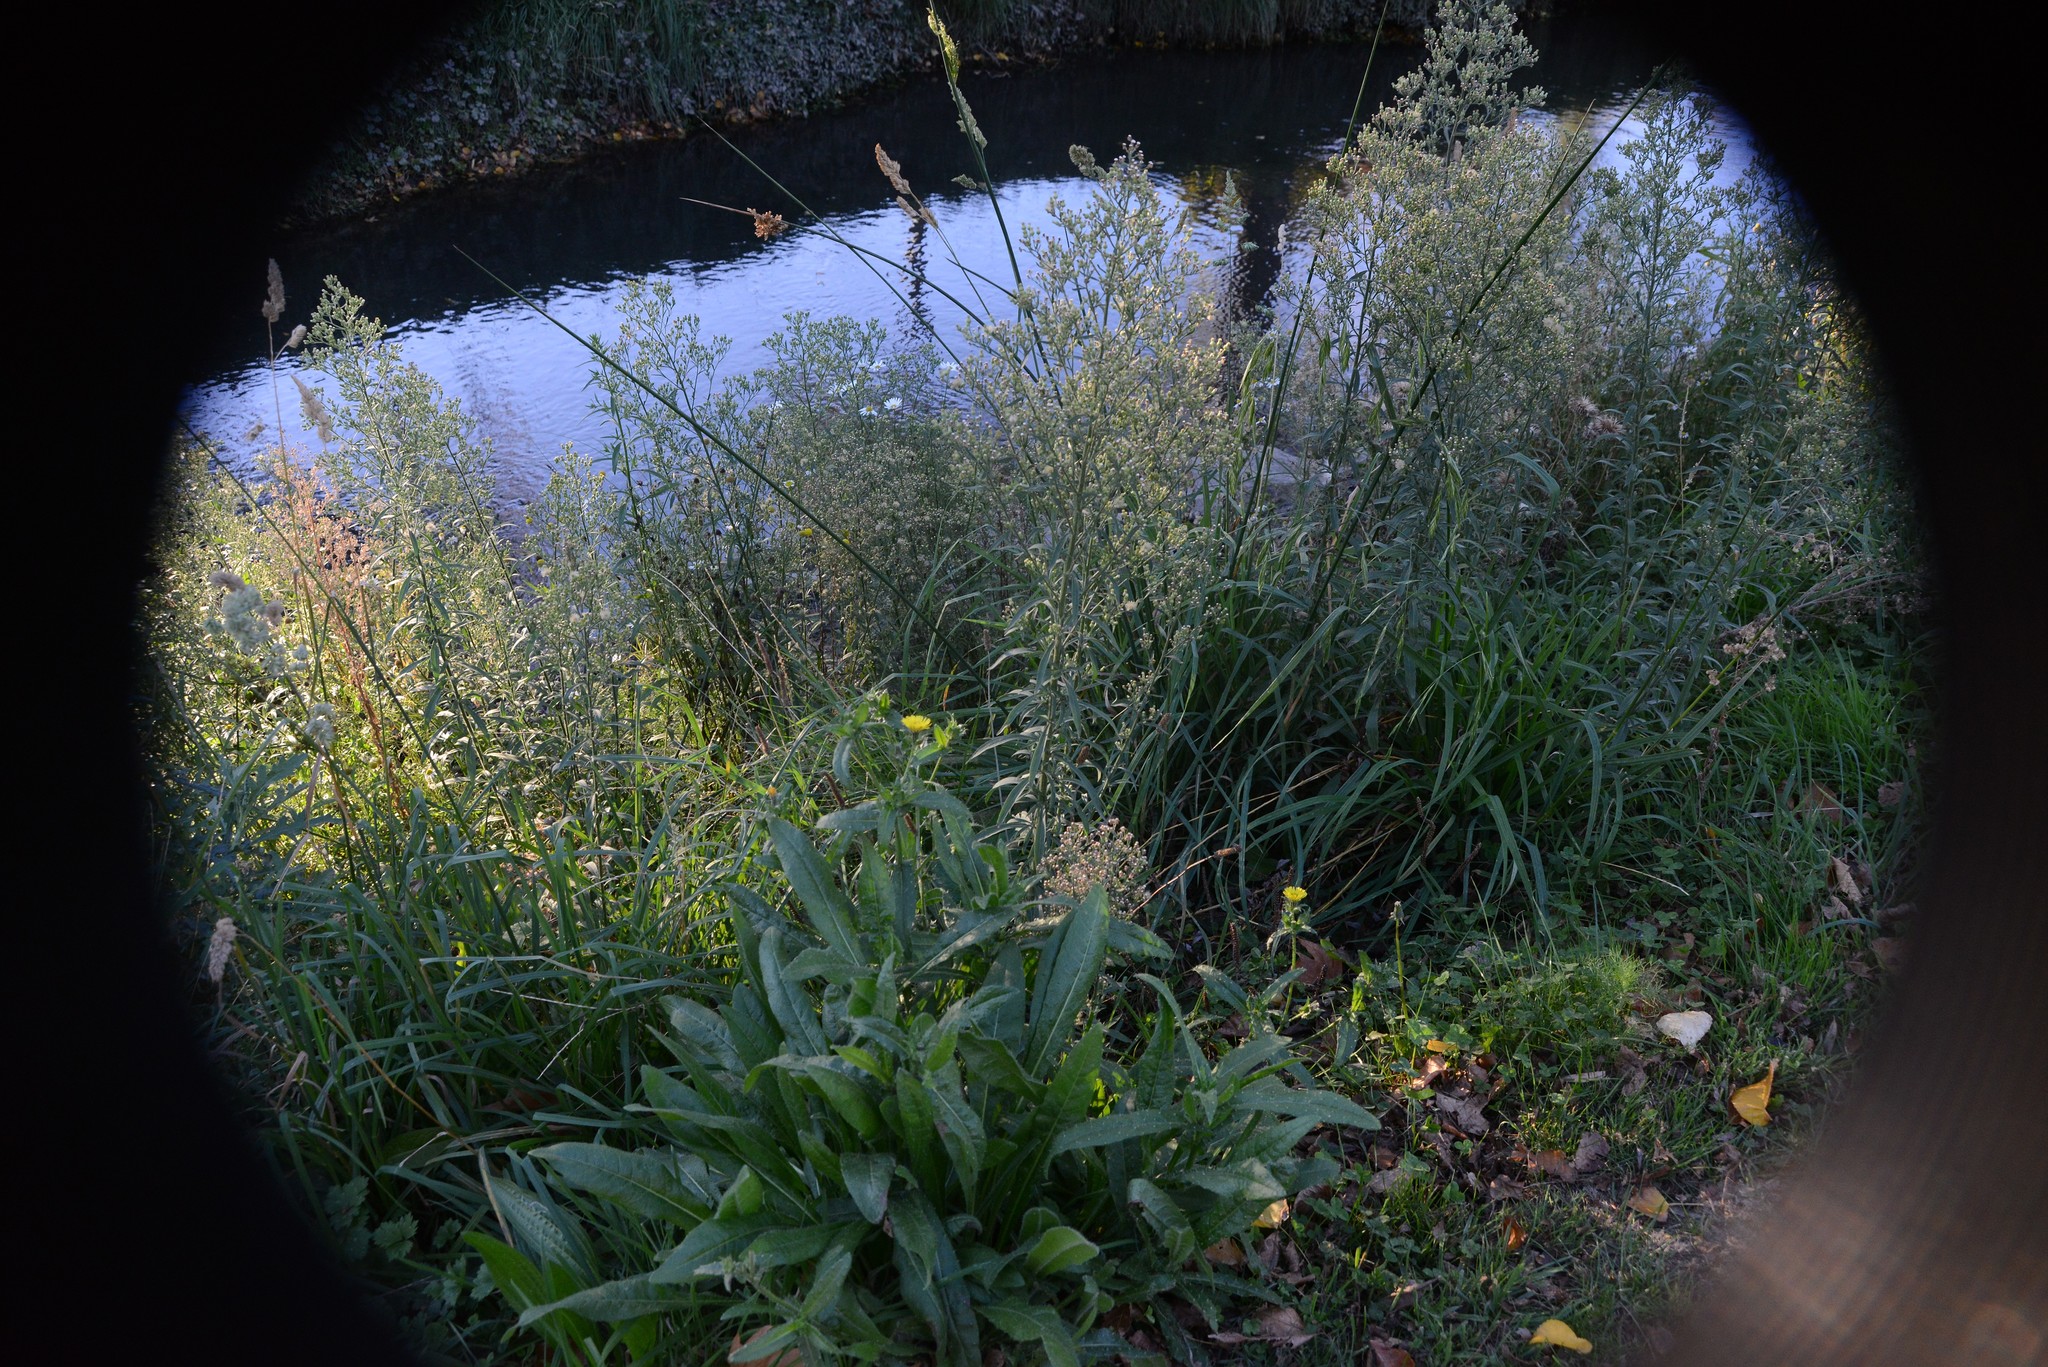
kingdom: Plantae
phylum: Tracheophyta
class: Magnoliopsida
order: Asterales
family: Asteraceae
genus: Helminthotheca
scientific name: Helminthotheca echioides
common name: Ox-tongue
